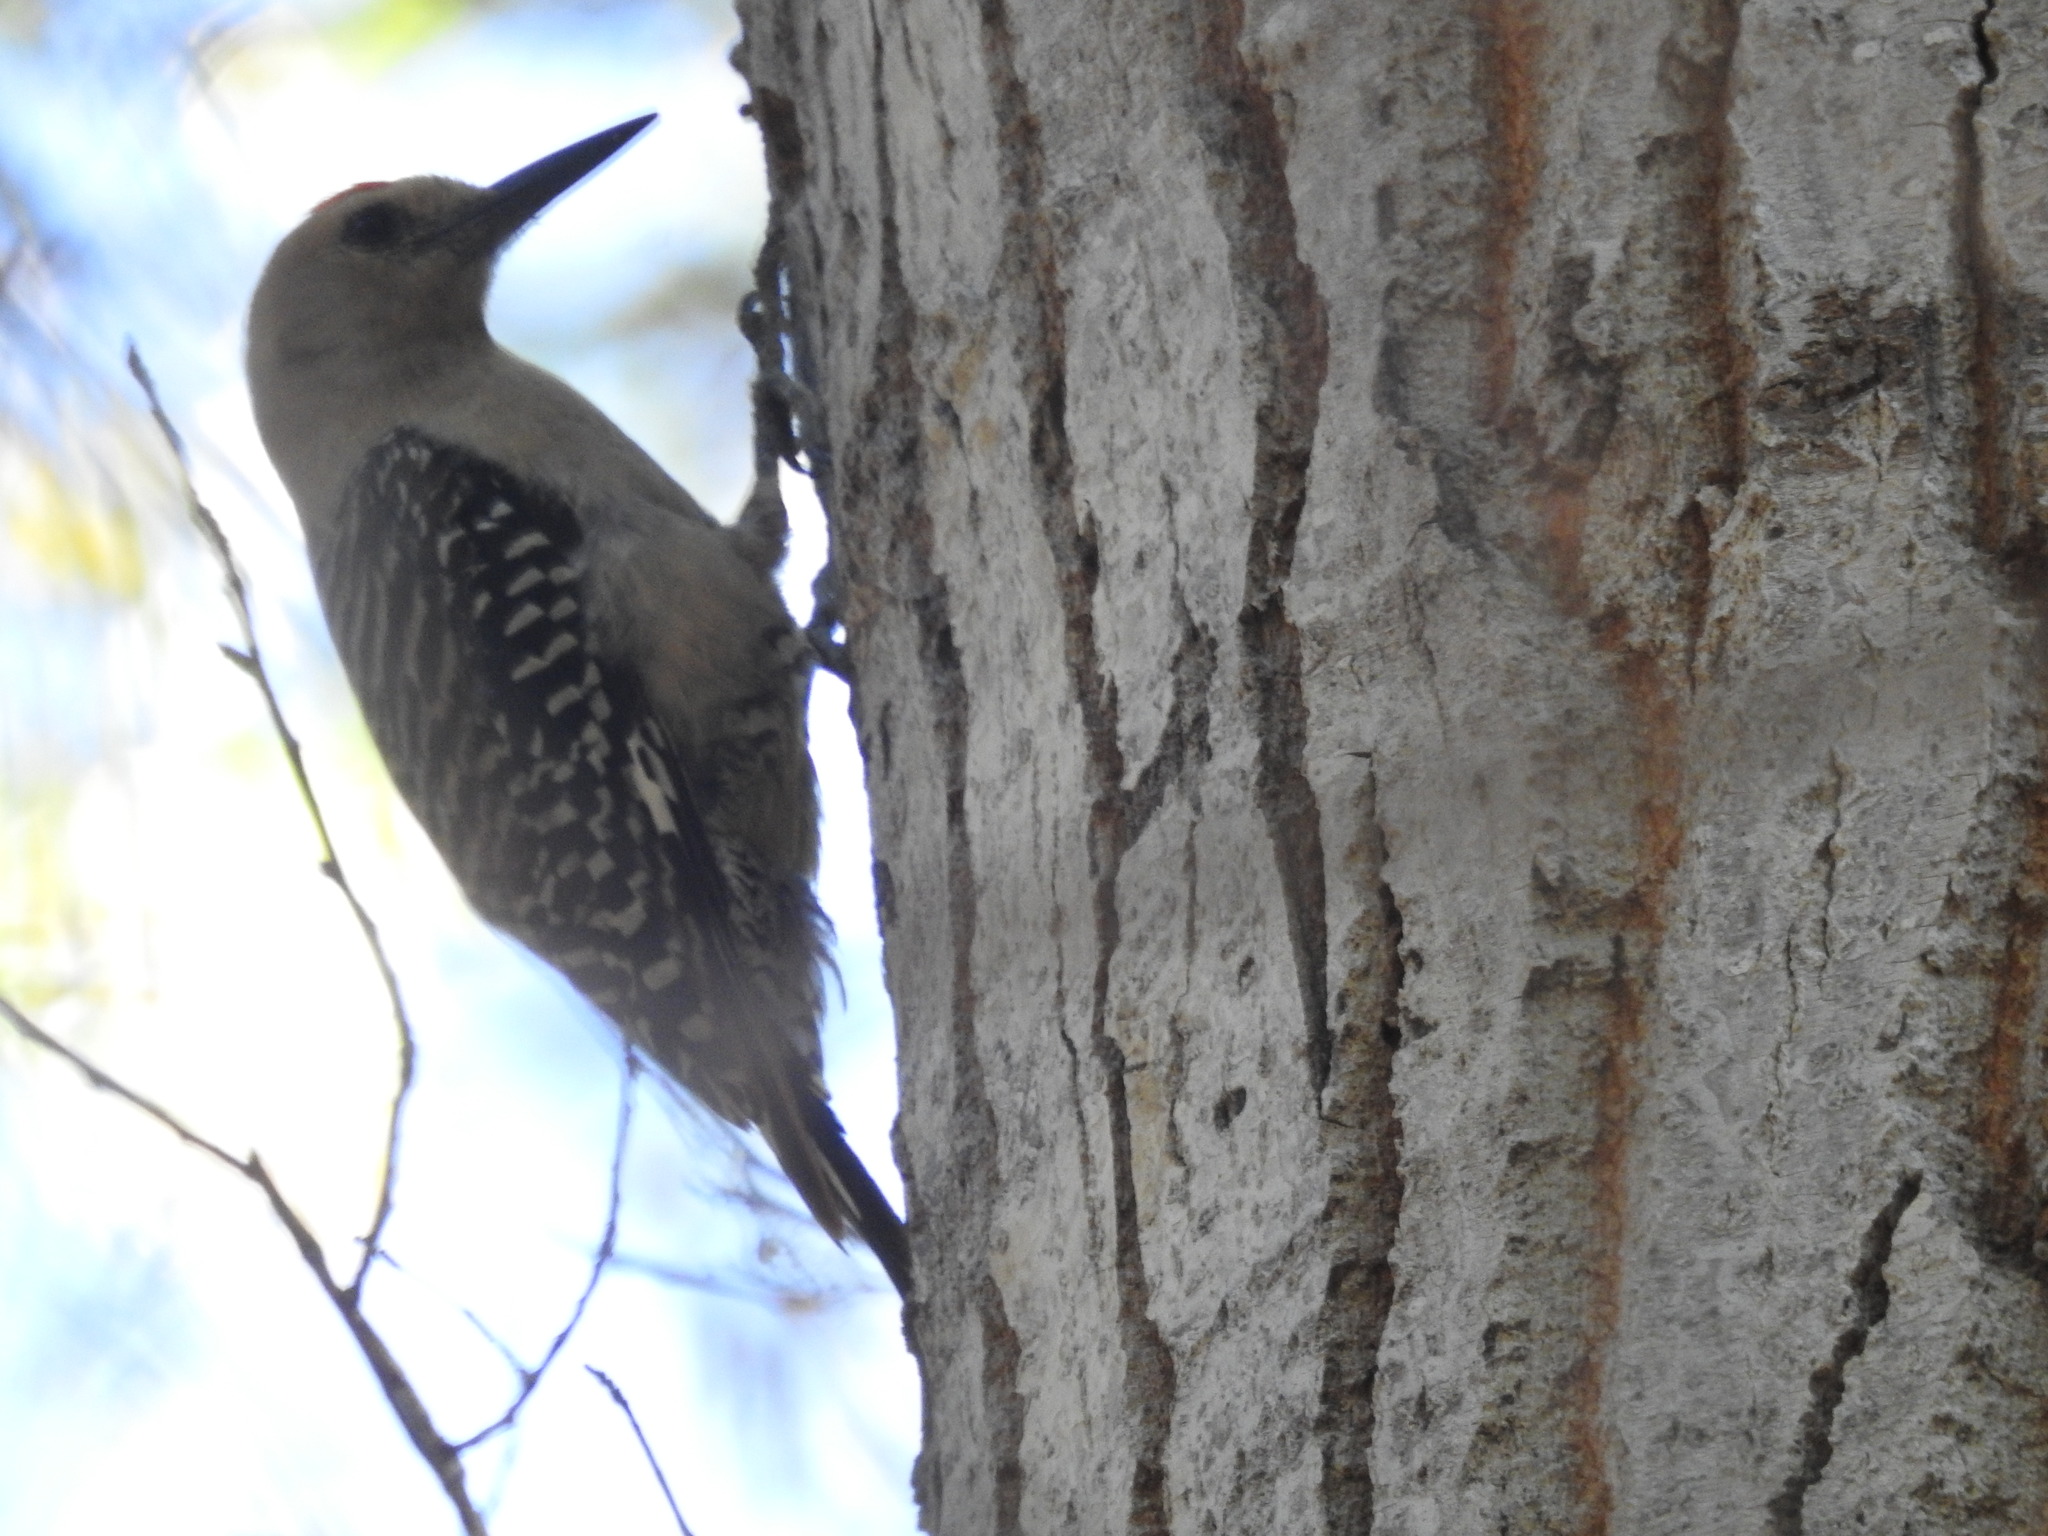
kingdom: Animalia
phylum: Chordata
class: Aves
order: Piciformes
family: Picidae
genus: Melanerpes
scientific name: Melanerpes uropygialis
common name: Gila woodpecker
